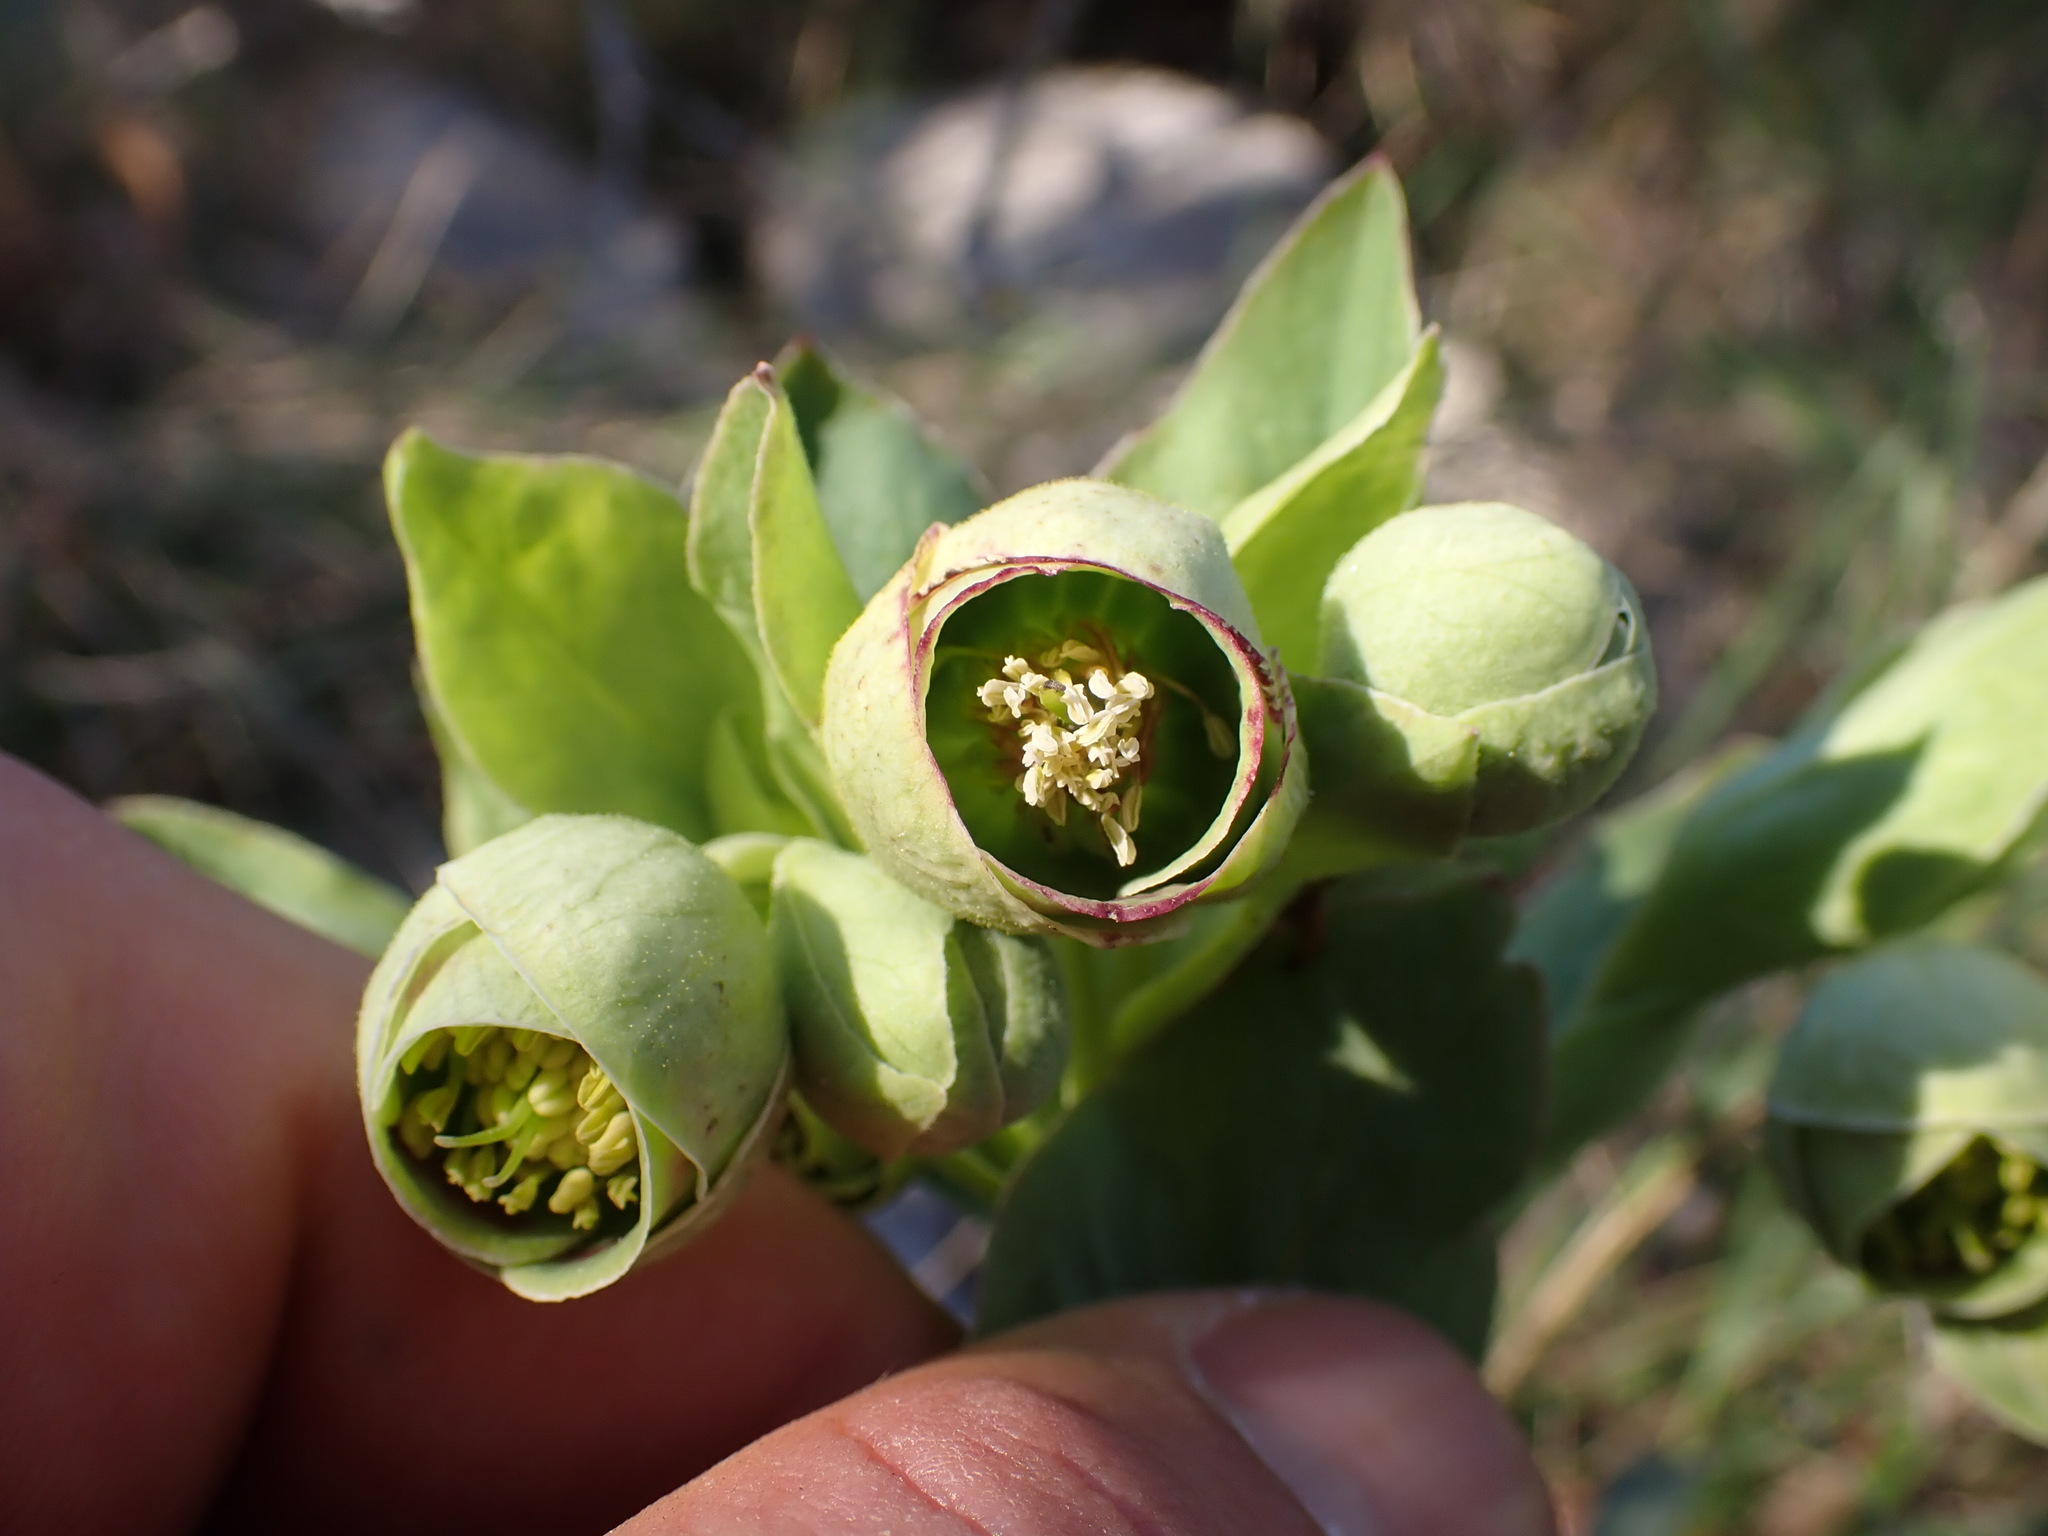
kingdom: Plantae
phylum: Tracheophyta
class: Magnoliopsida
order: Ranunculales
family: Ranunculaceae
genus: Helleborus
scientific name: Helleborus foetidus
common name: Stinking hellebore
